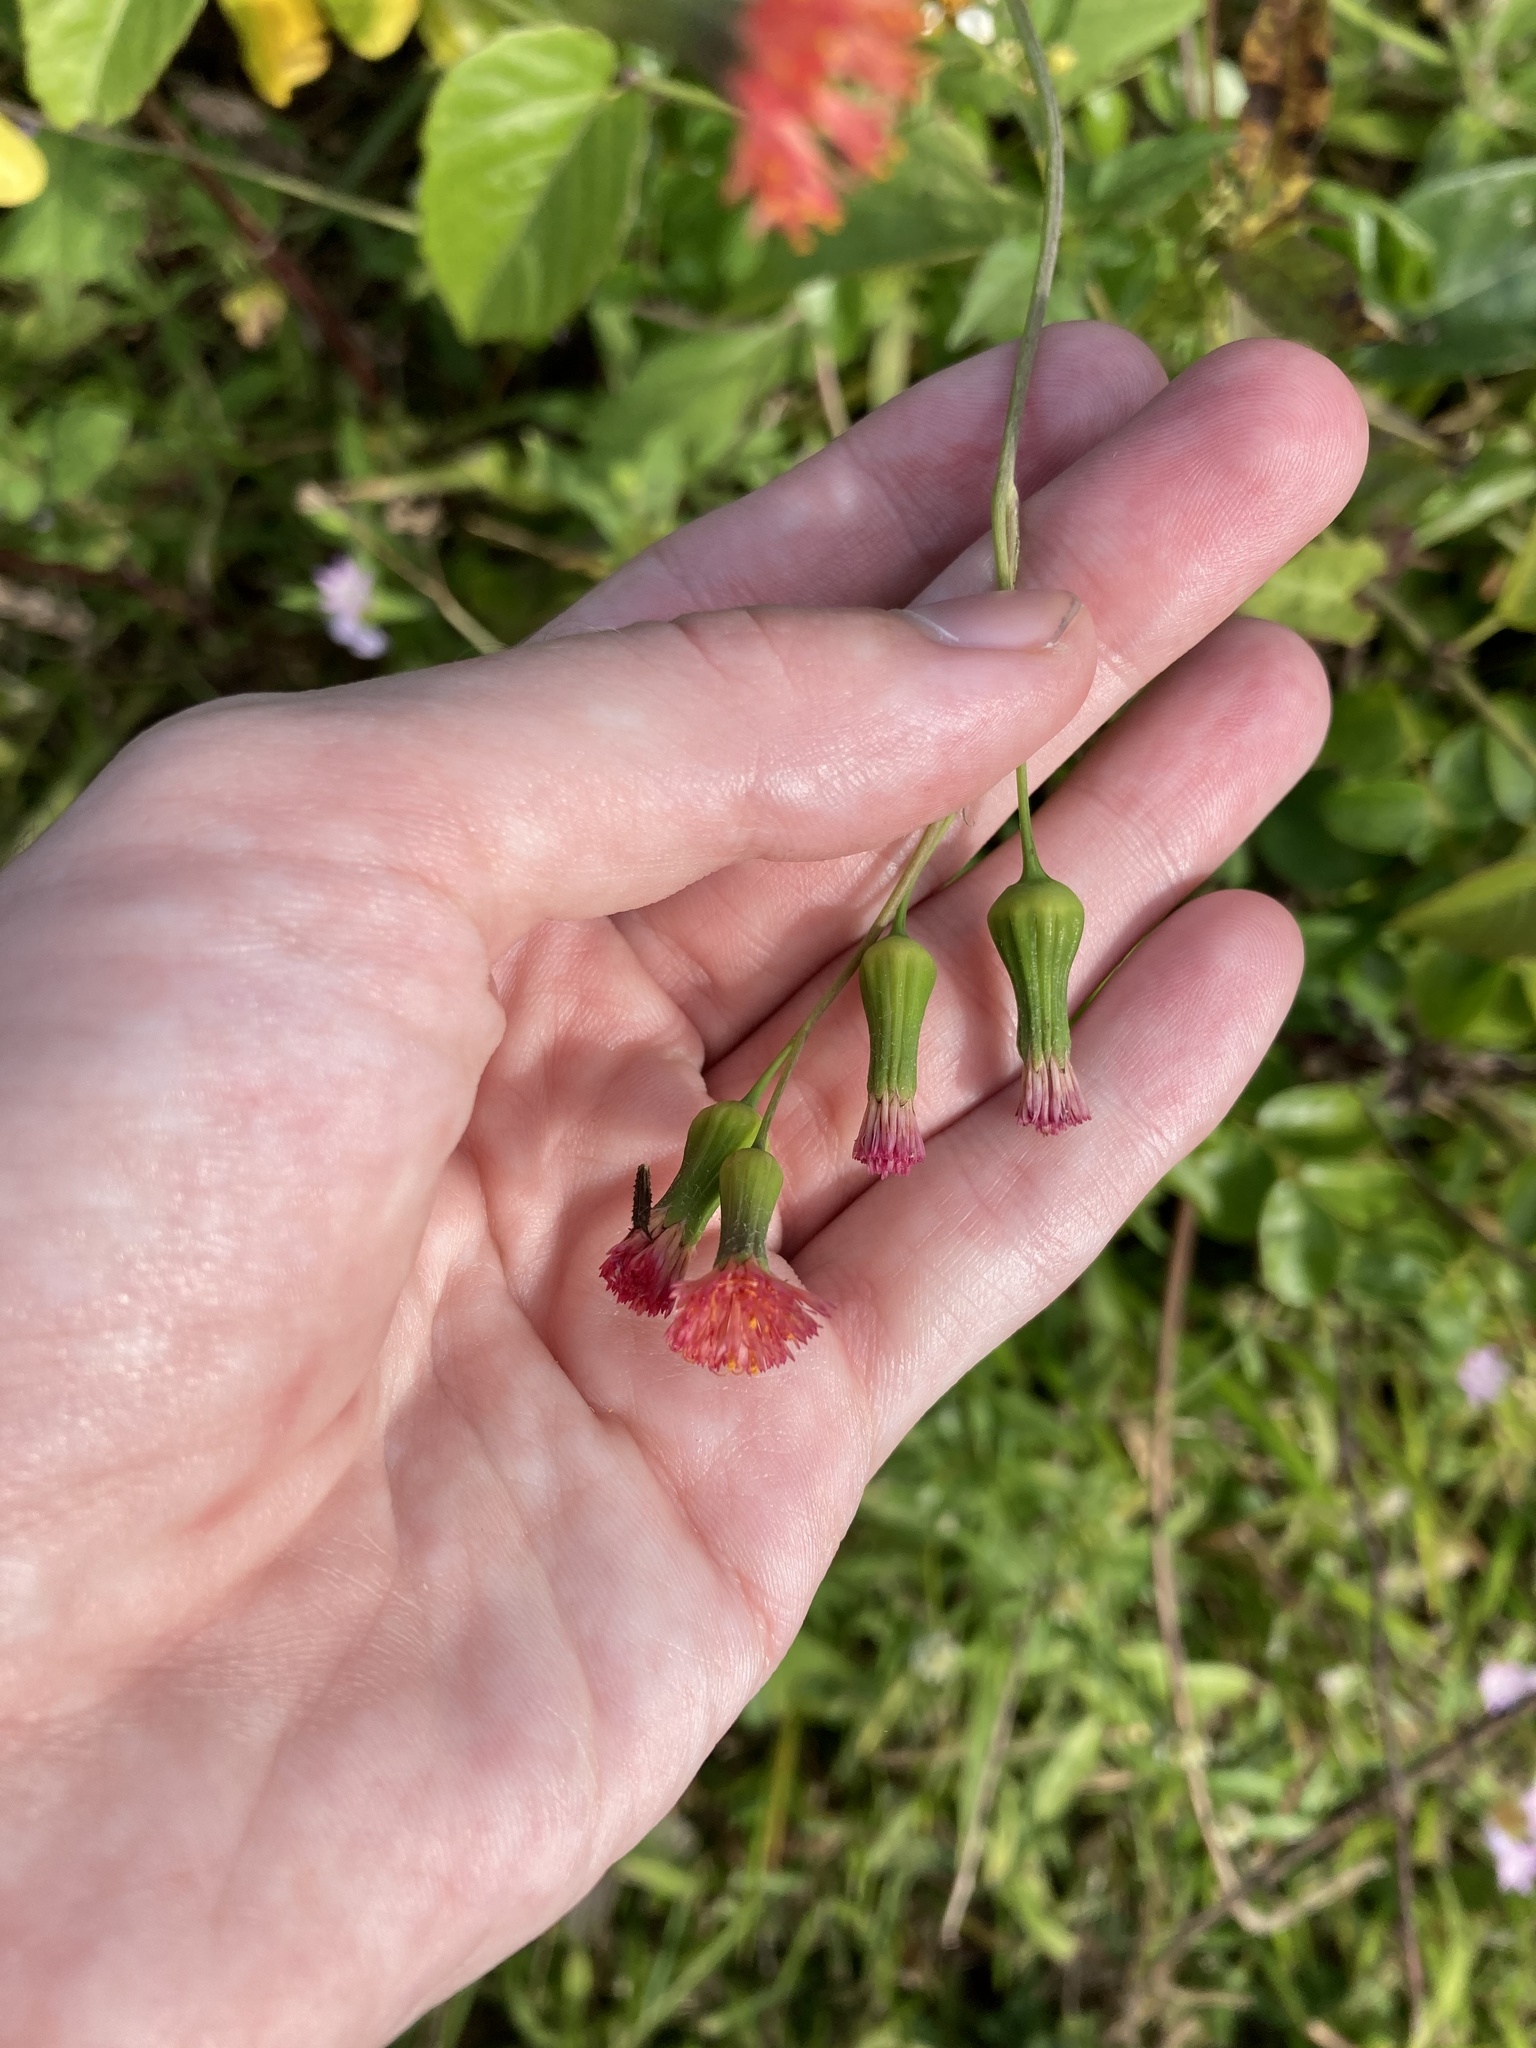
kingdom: Plantae
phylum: Tracheophyta
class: Magnoliopsida
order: Asterales
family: Asteraceae
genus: Emilia
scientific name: Emilia fosbergii
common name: Florida tasselflower
